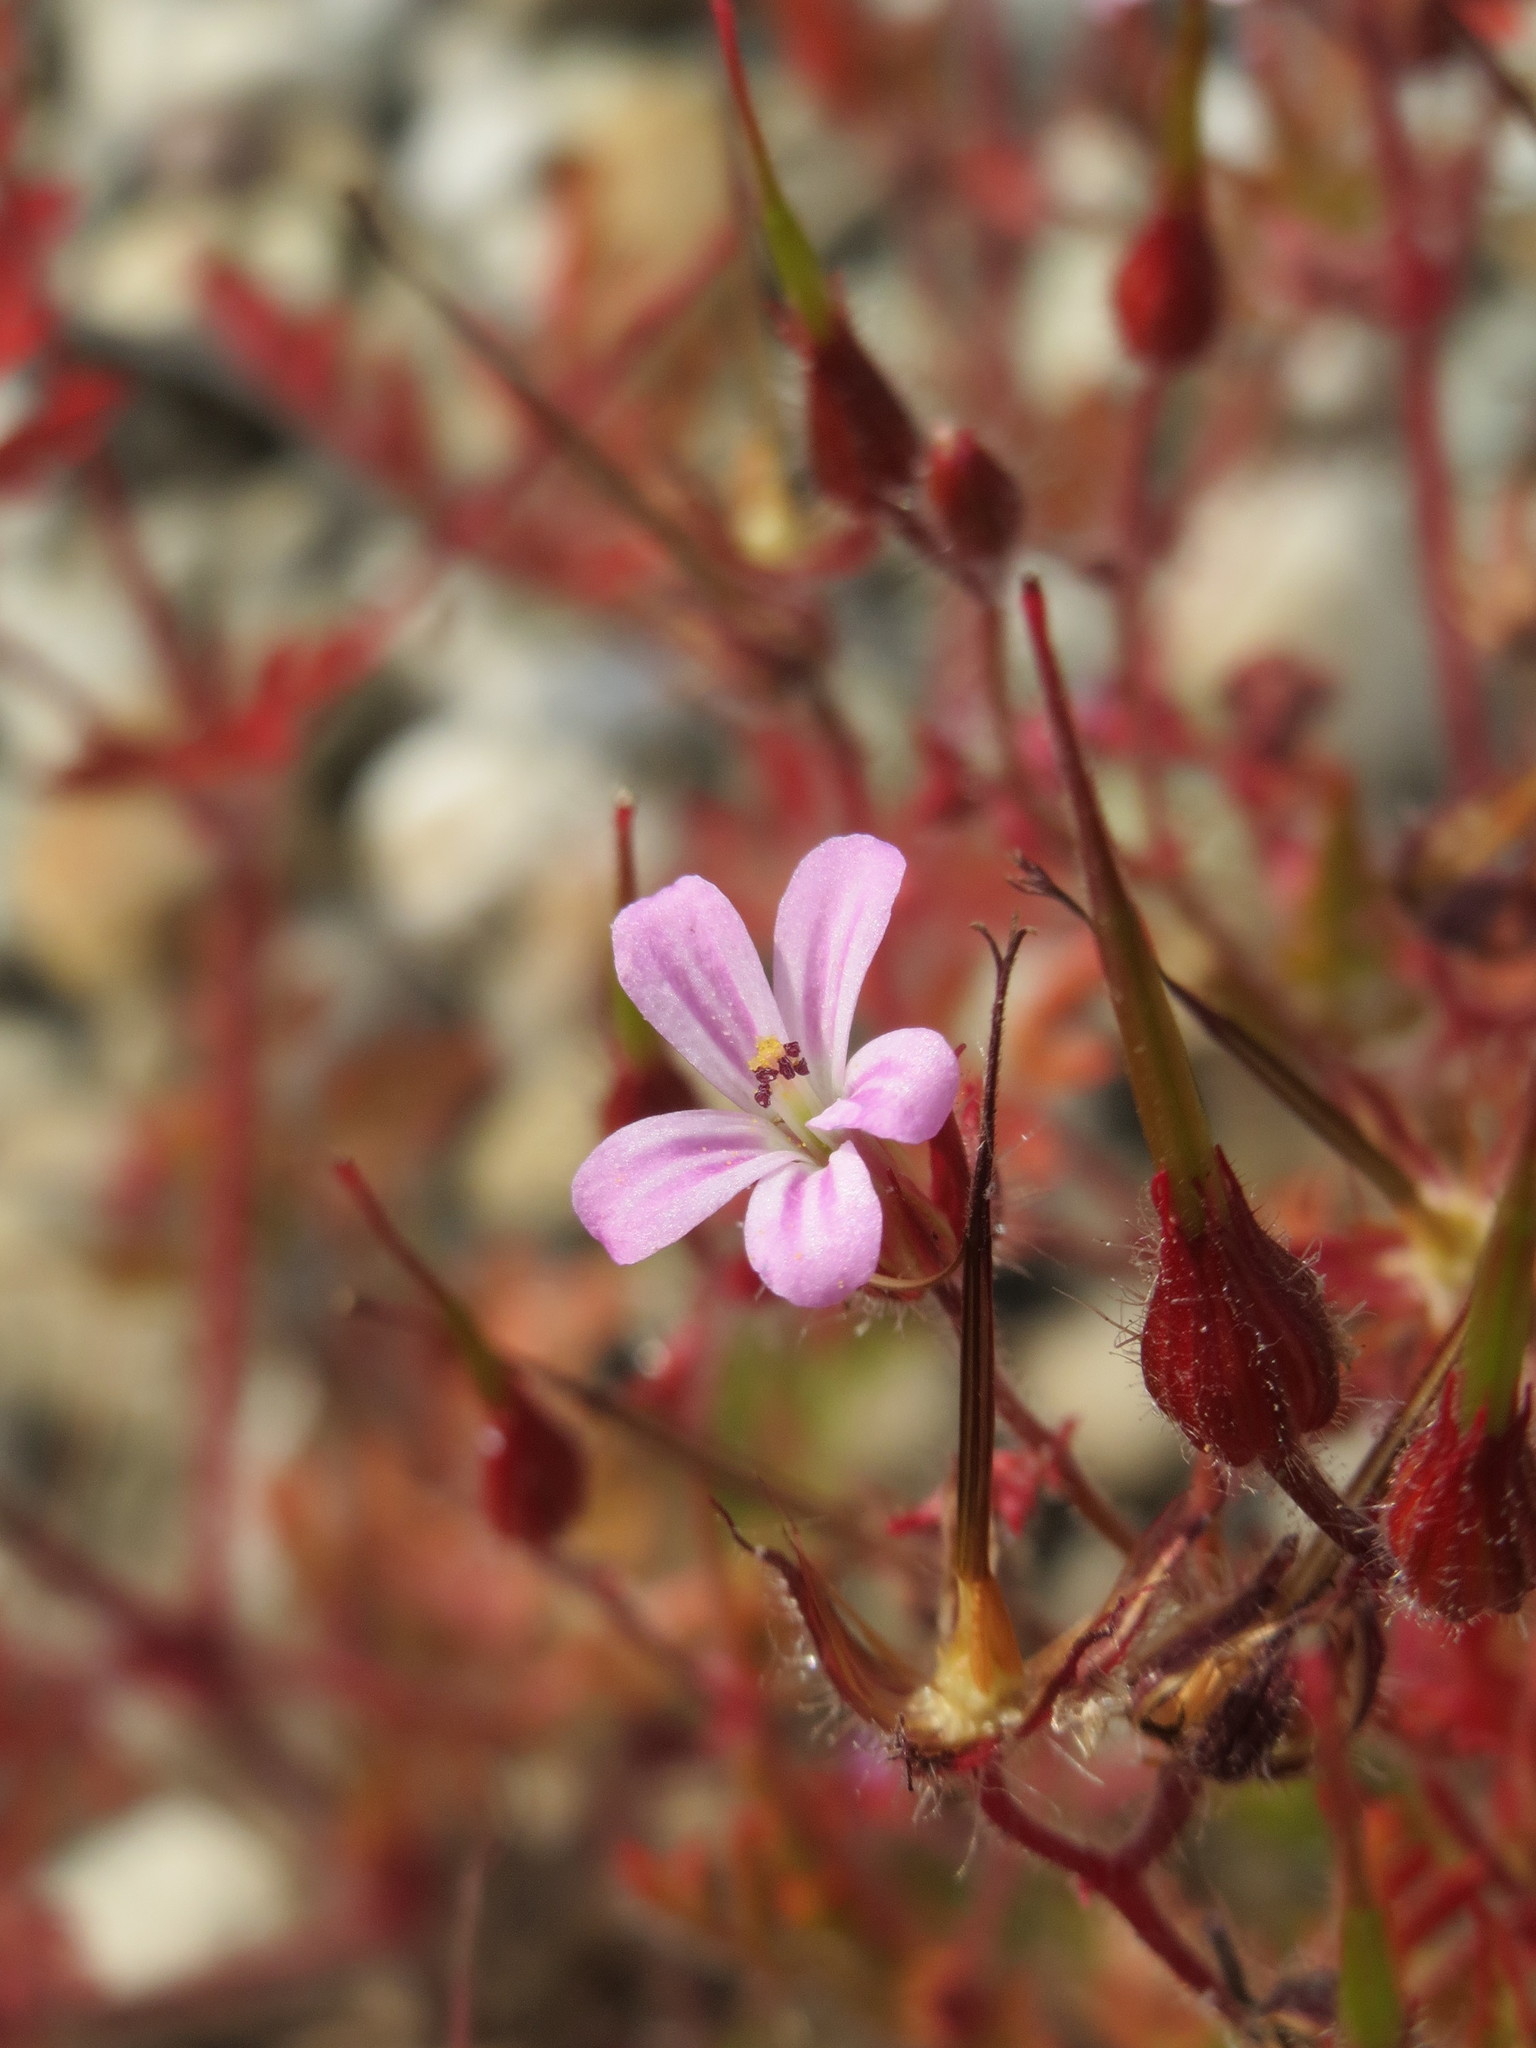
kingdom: Plantae
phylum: Tracheophyta
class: Magnoliopsida
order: Geraniales
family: Geraniaceae
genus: Geranium
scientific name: Geranium robertianum
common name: Herb-robert
